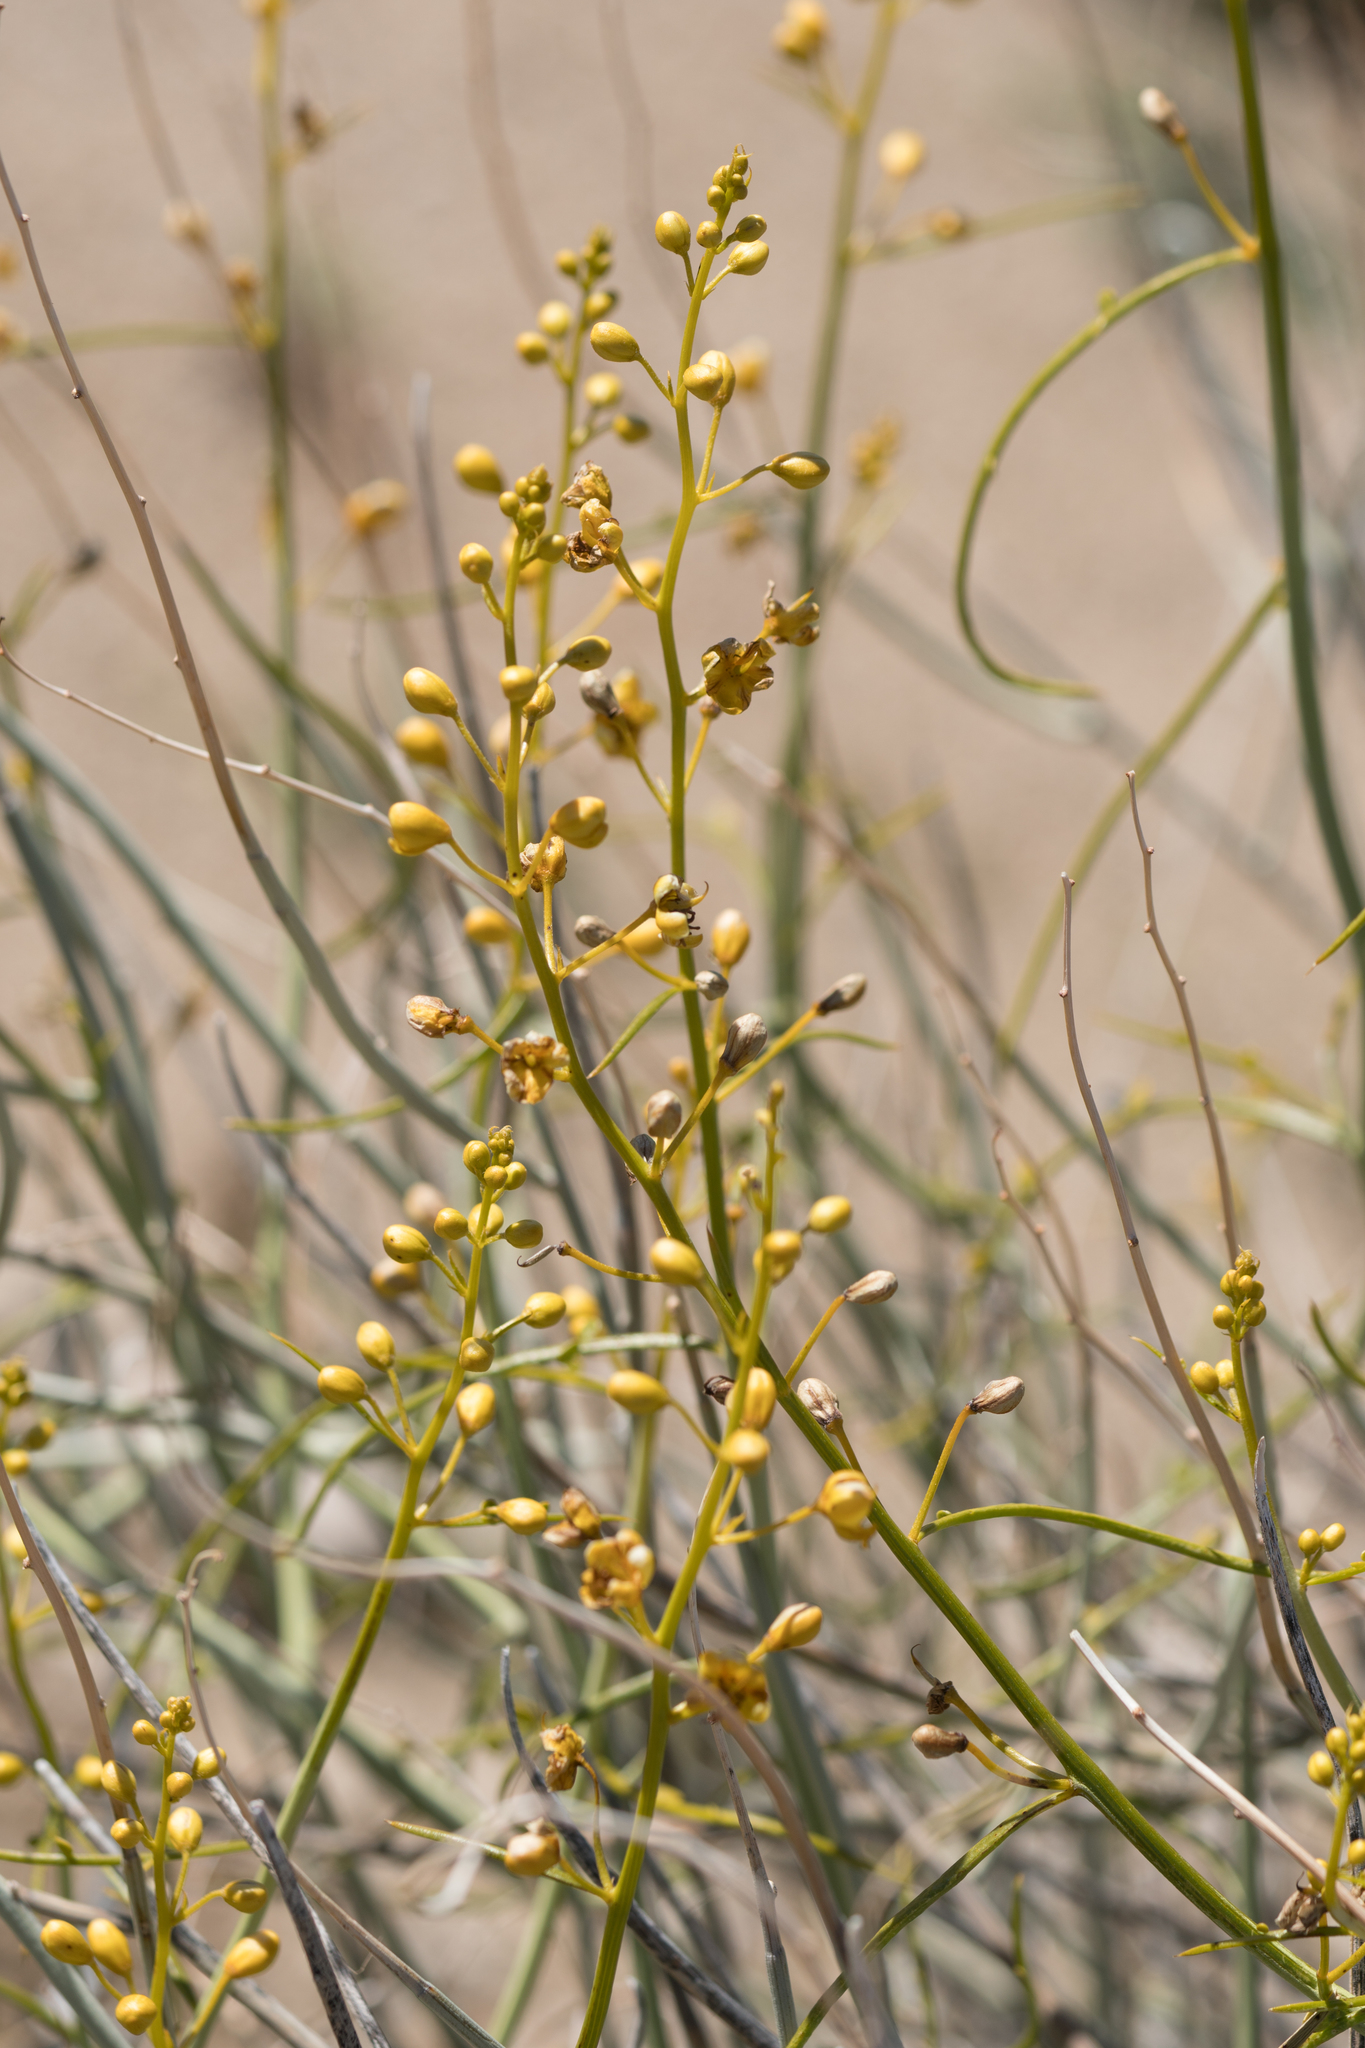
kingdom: Plantae
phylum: Tracheophyta
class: Magnoliopsida
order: Fabales
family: Fabaceae
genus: Senna
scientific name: Senna armata
